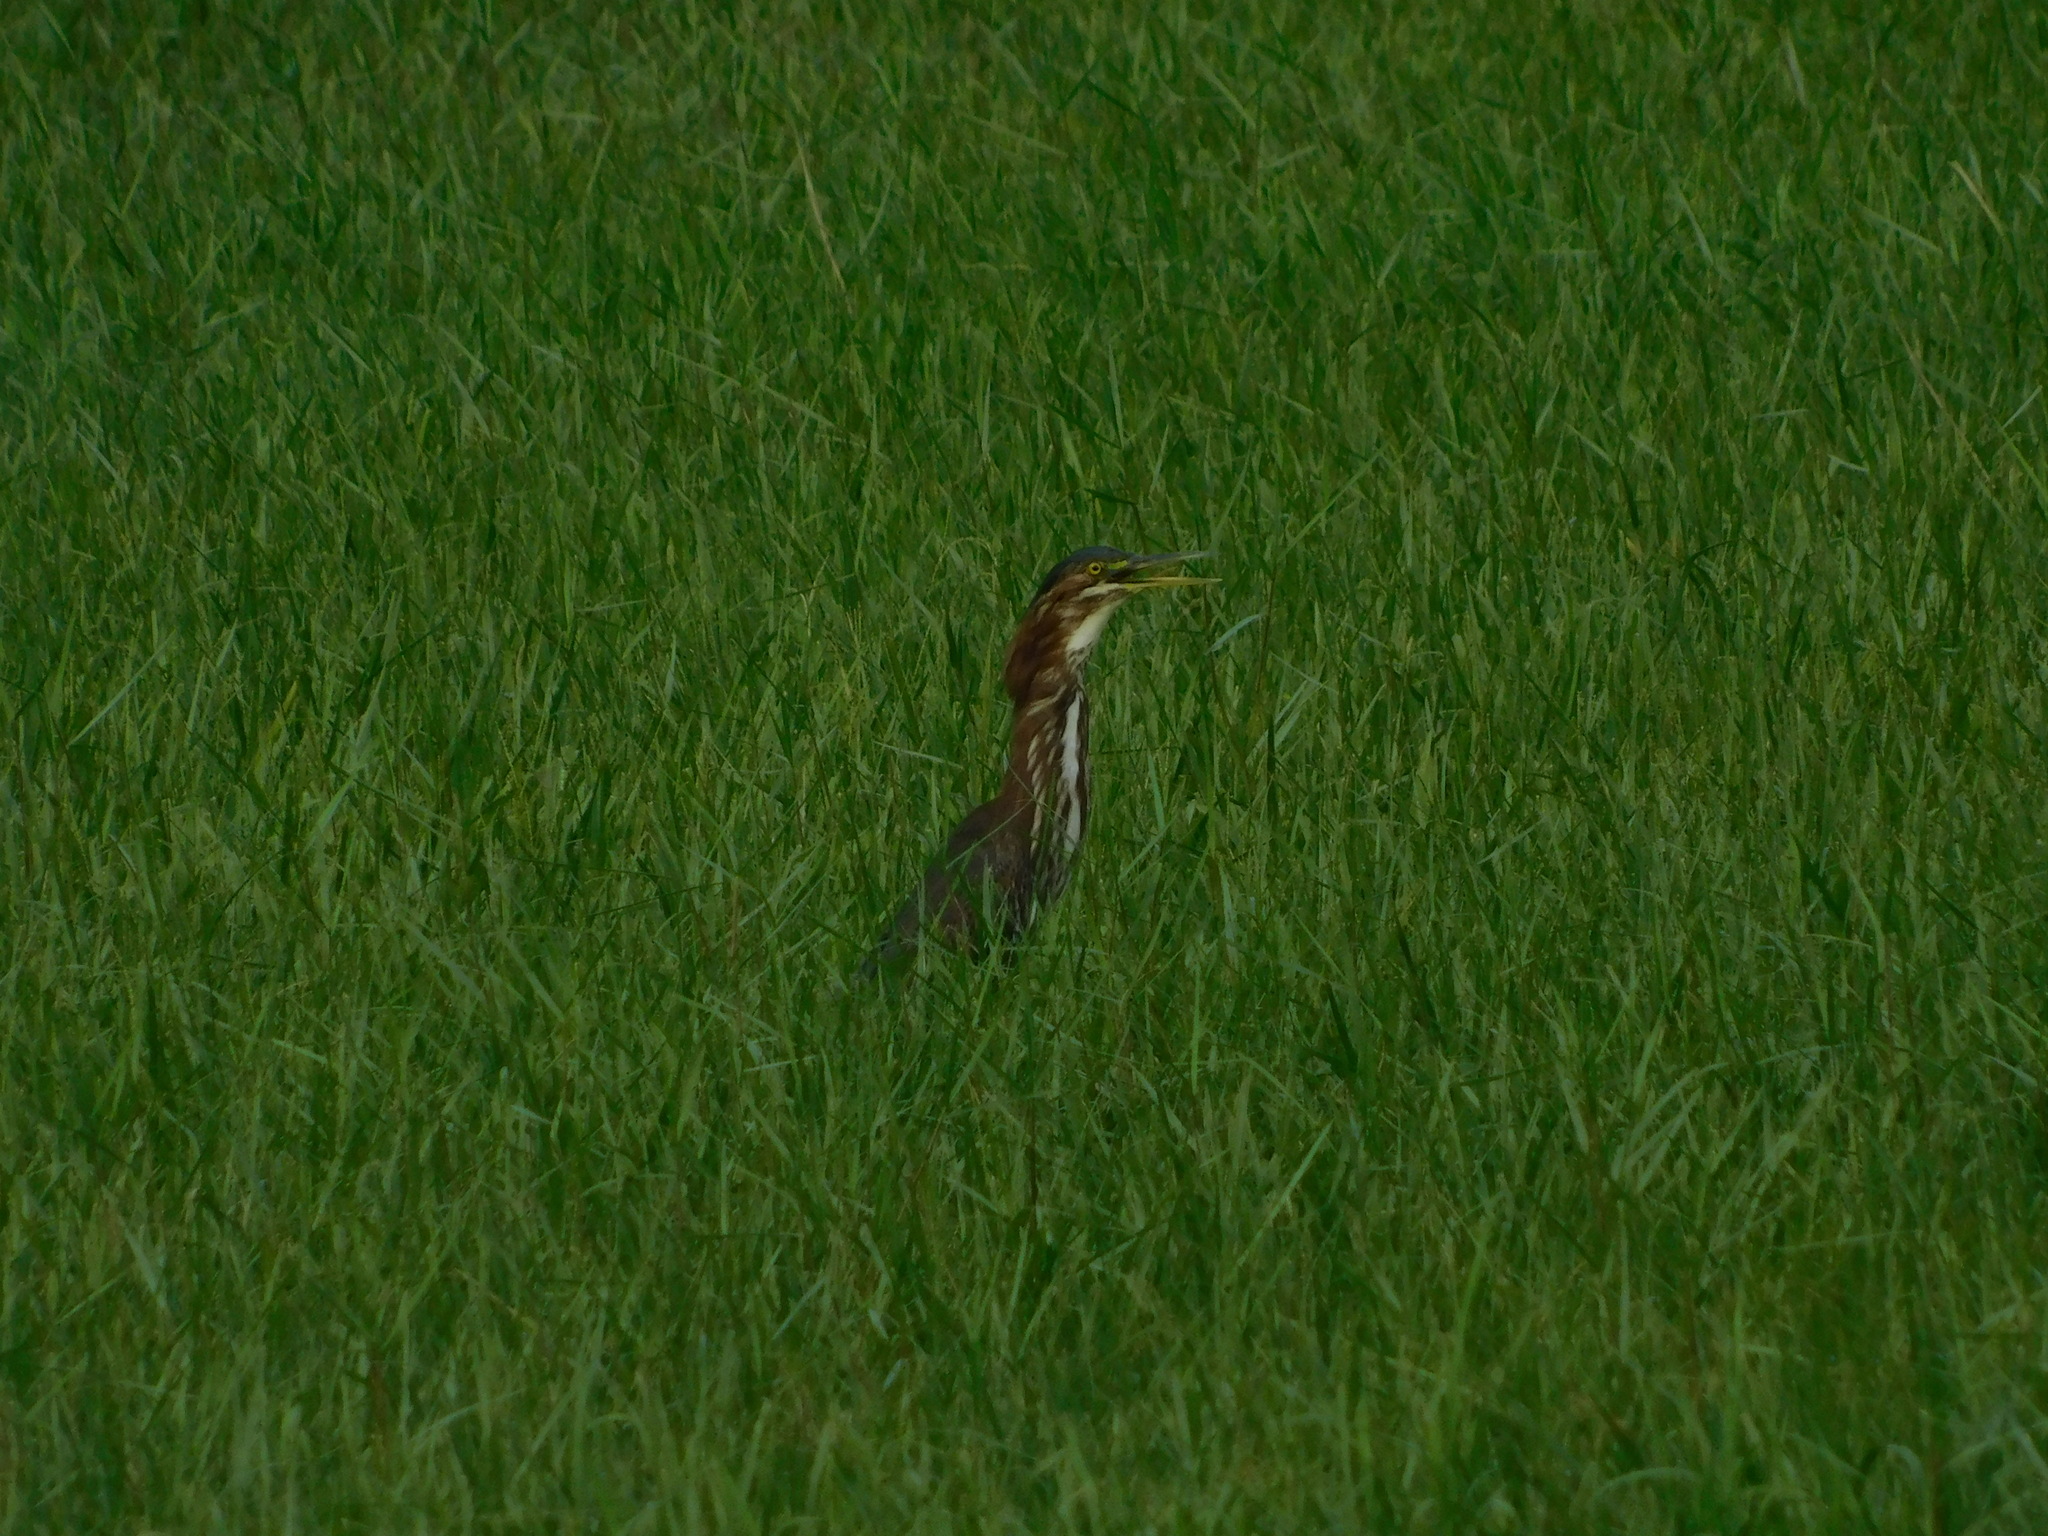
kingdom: Animalia
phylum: Chordata
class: Aves
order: Pelecaniformes
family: Ardeidae
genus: Butorides
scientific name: Butorides virescens
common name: Green heron
